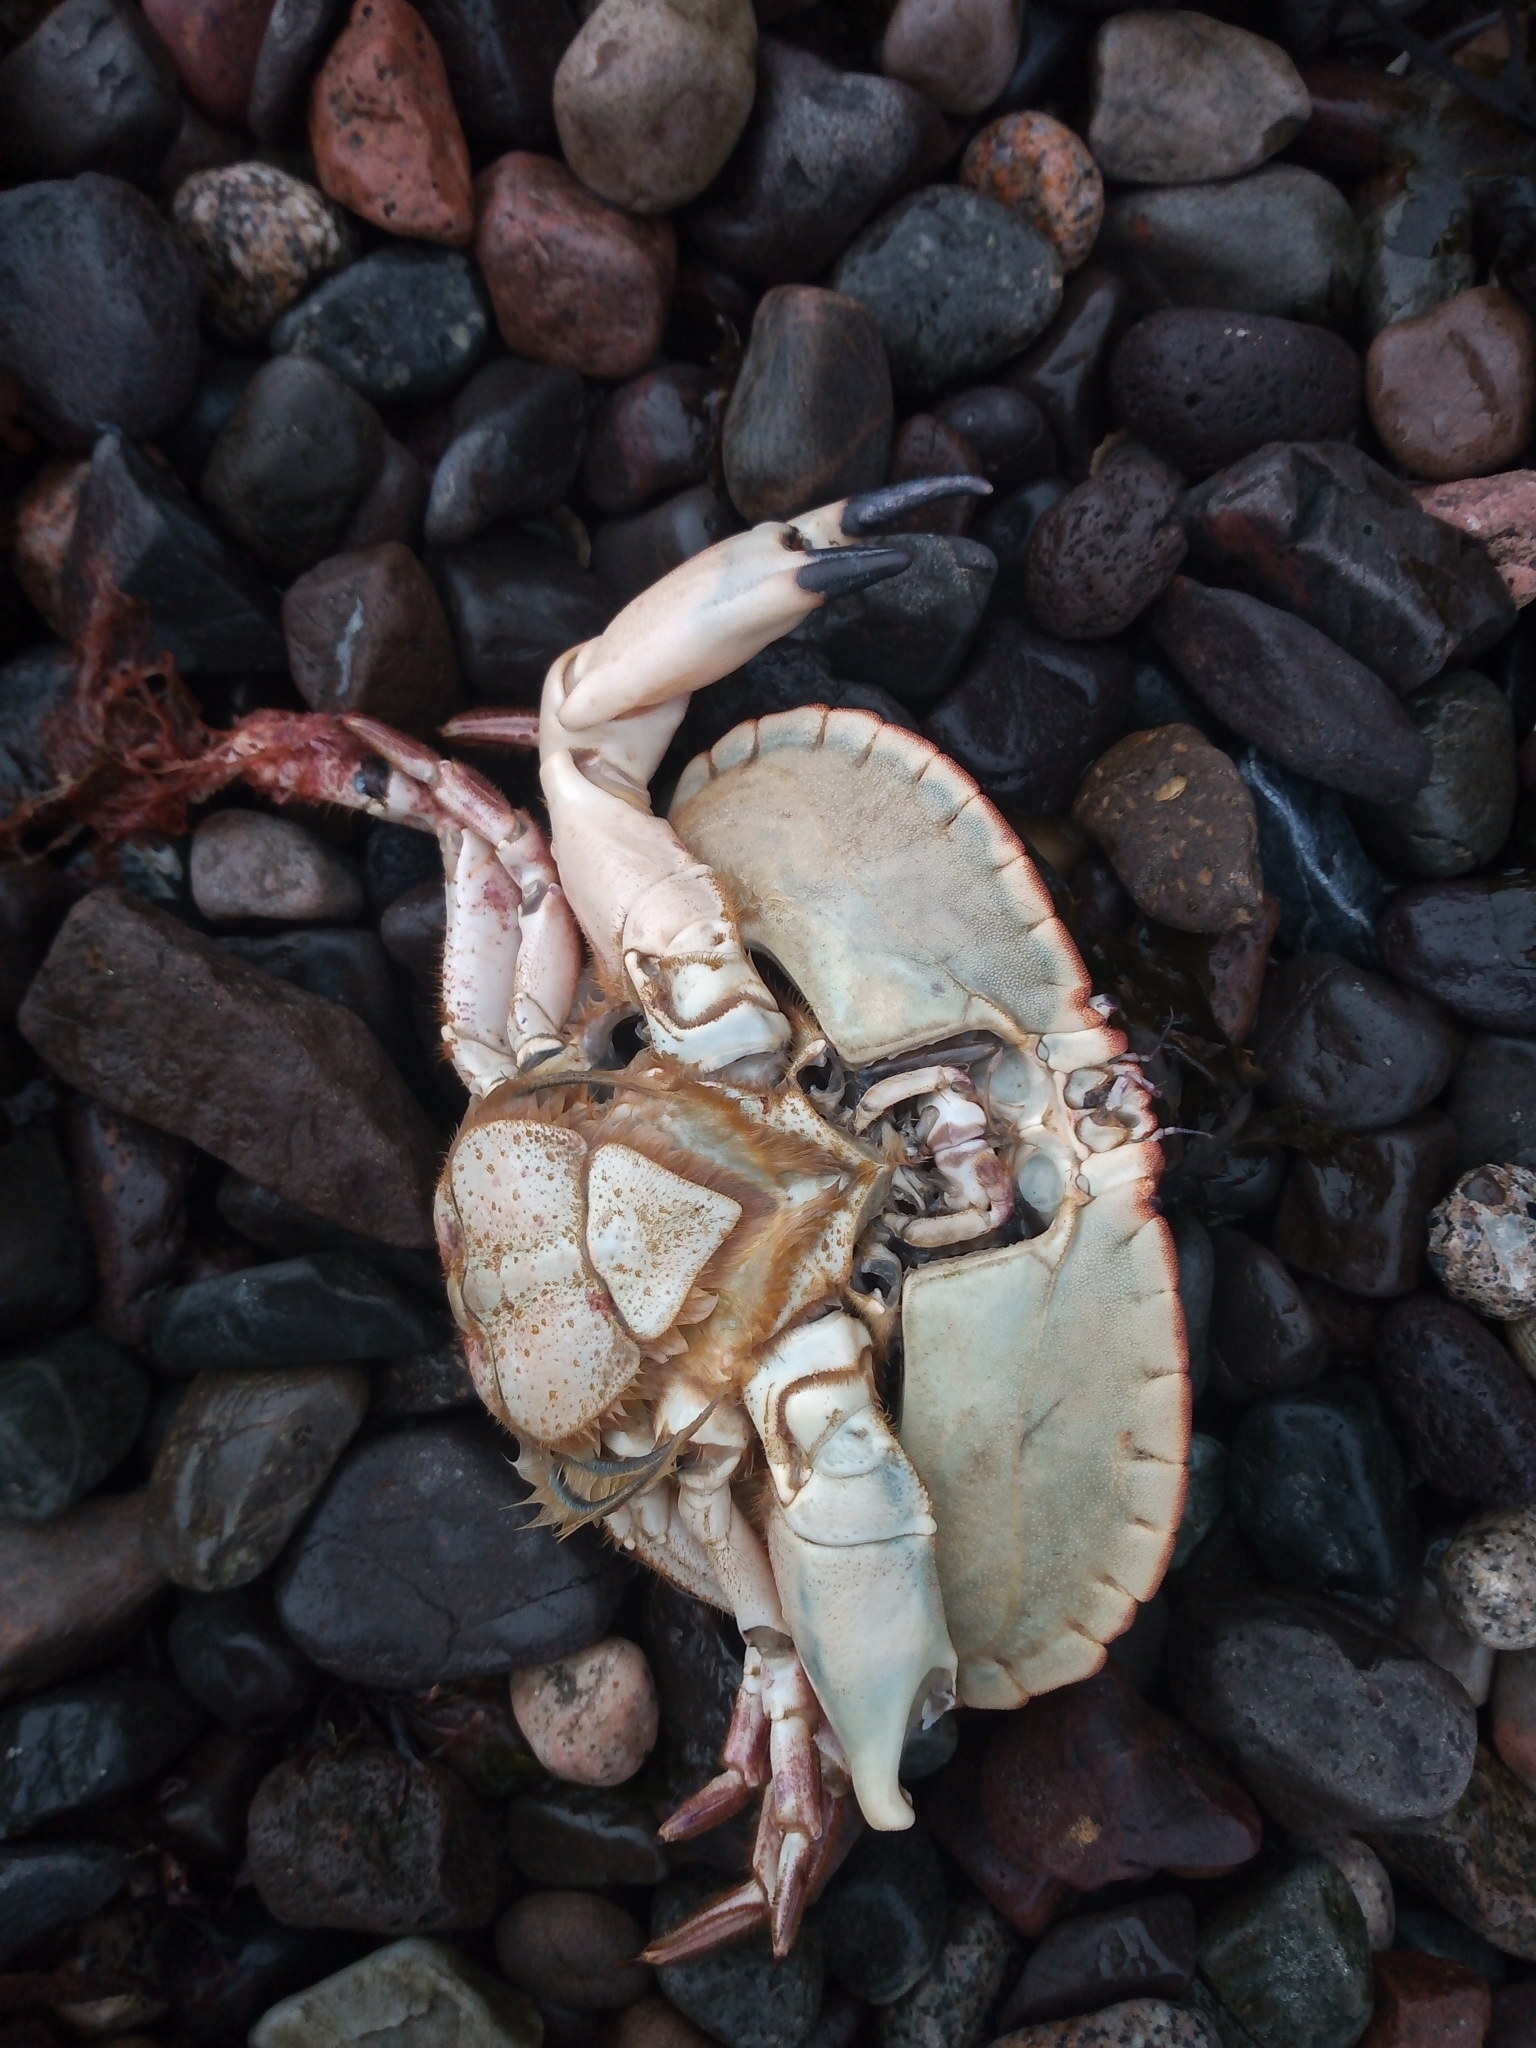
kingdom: Animalia
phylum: Arthropoda
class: Malacostraca
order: Decapoda
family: Cancridae
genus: Cancer
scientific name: Cancer pagurus
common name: Edible crab
